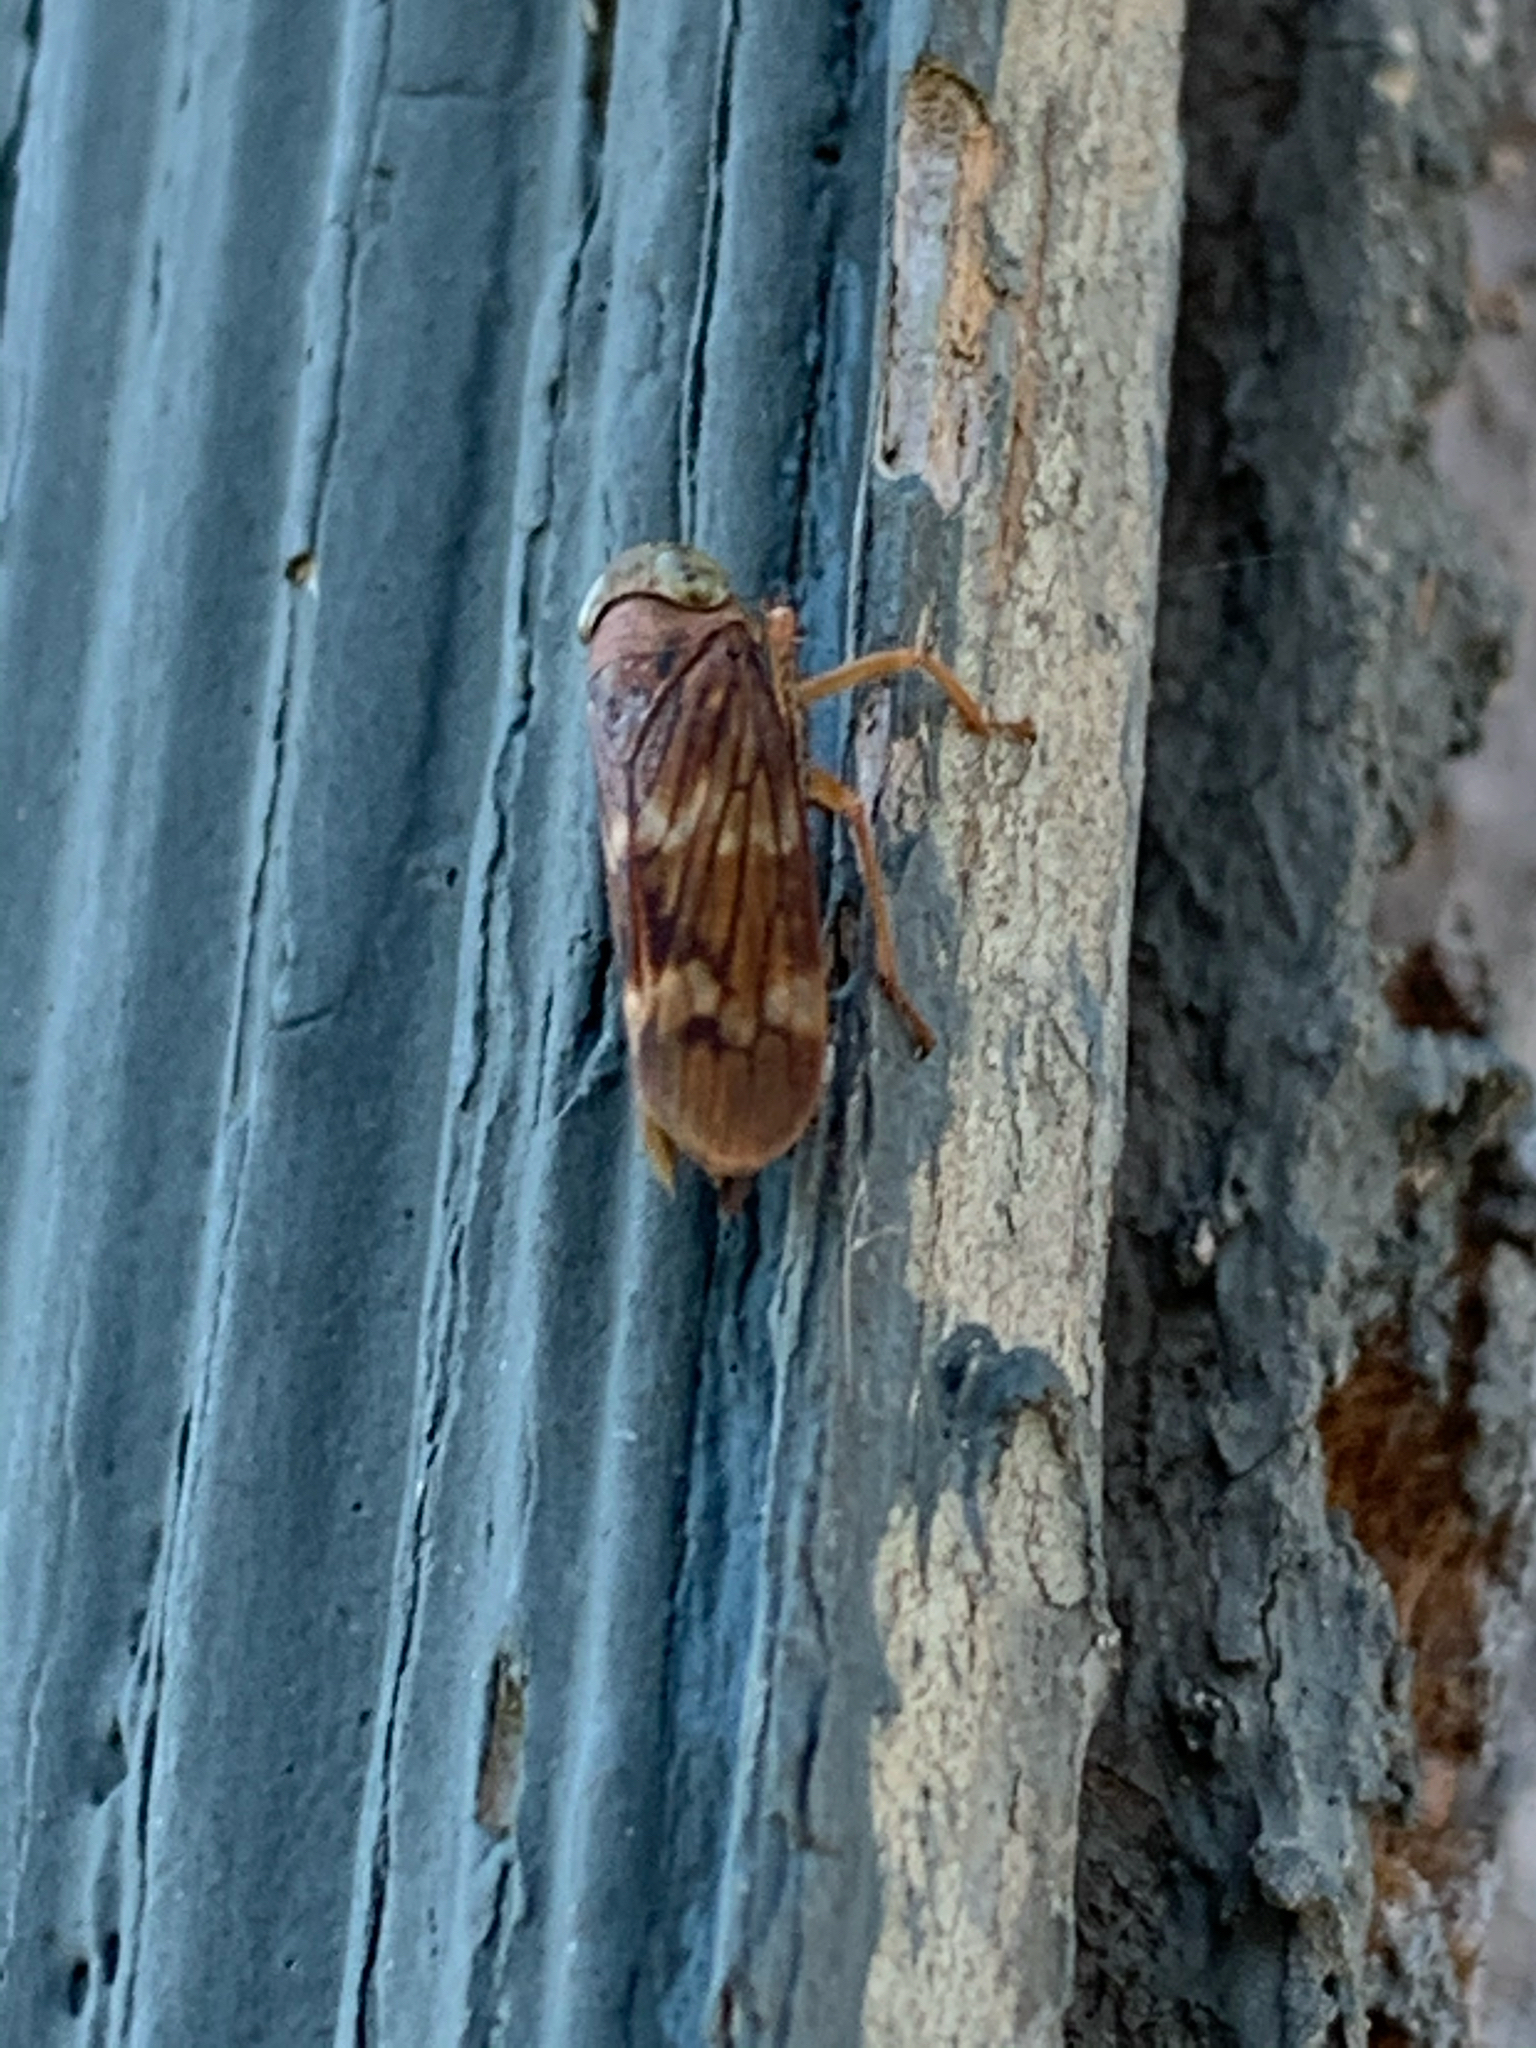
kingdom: Animalia
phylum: Arthropoda
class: Insecta
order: Hemiptera
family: Cicadellidae
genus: Jikradia
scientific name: Jikradia olitoria
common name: Coppery leafhopper
